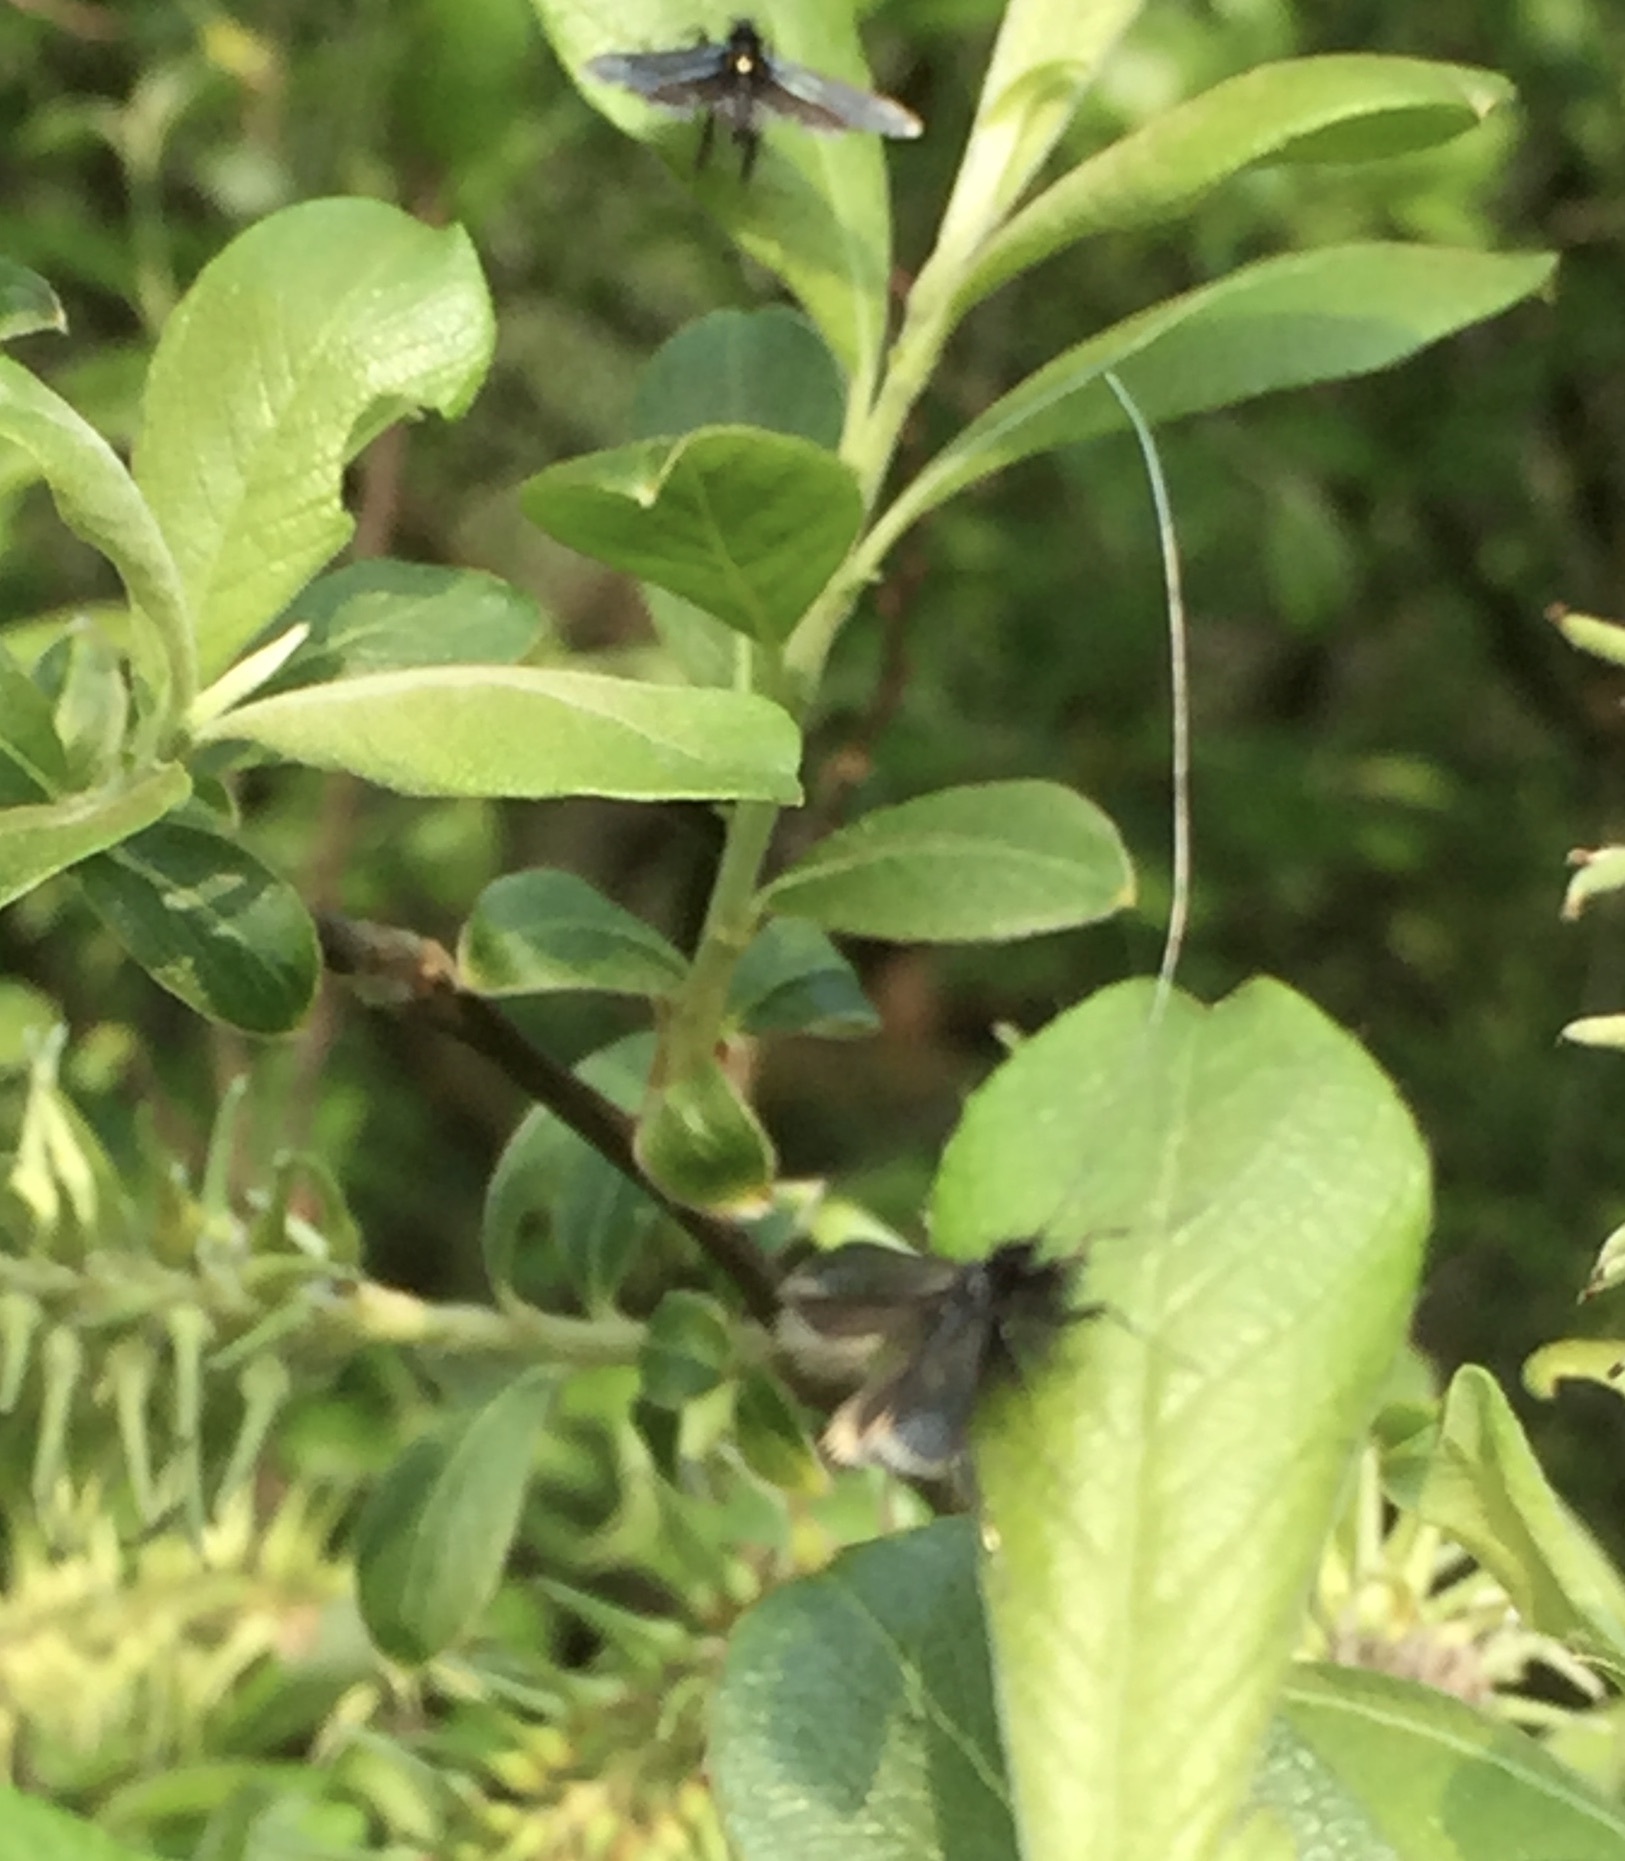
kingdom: Animalia
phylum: Arthropoda
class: Insecta
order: Lepidoptera
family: Adelidae
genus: Adela
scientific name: Adela viridella
